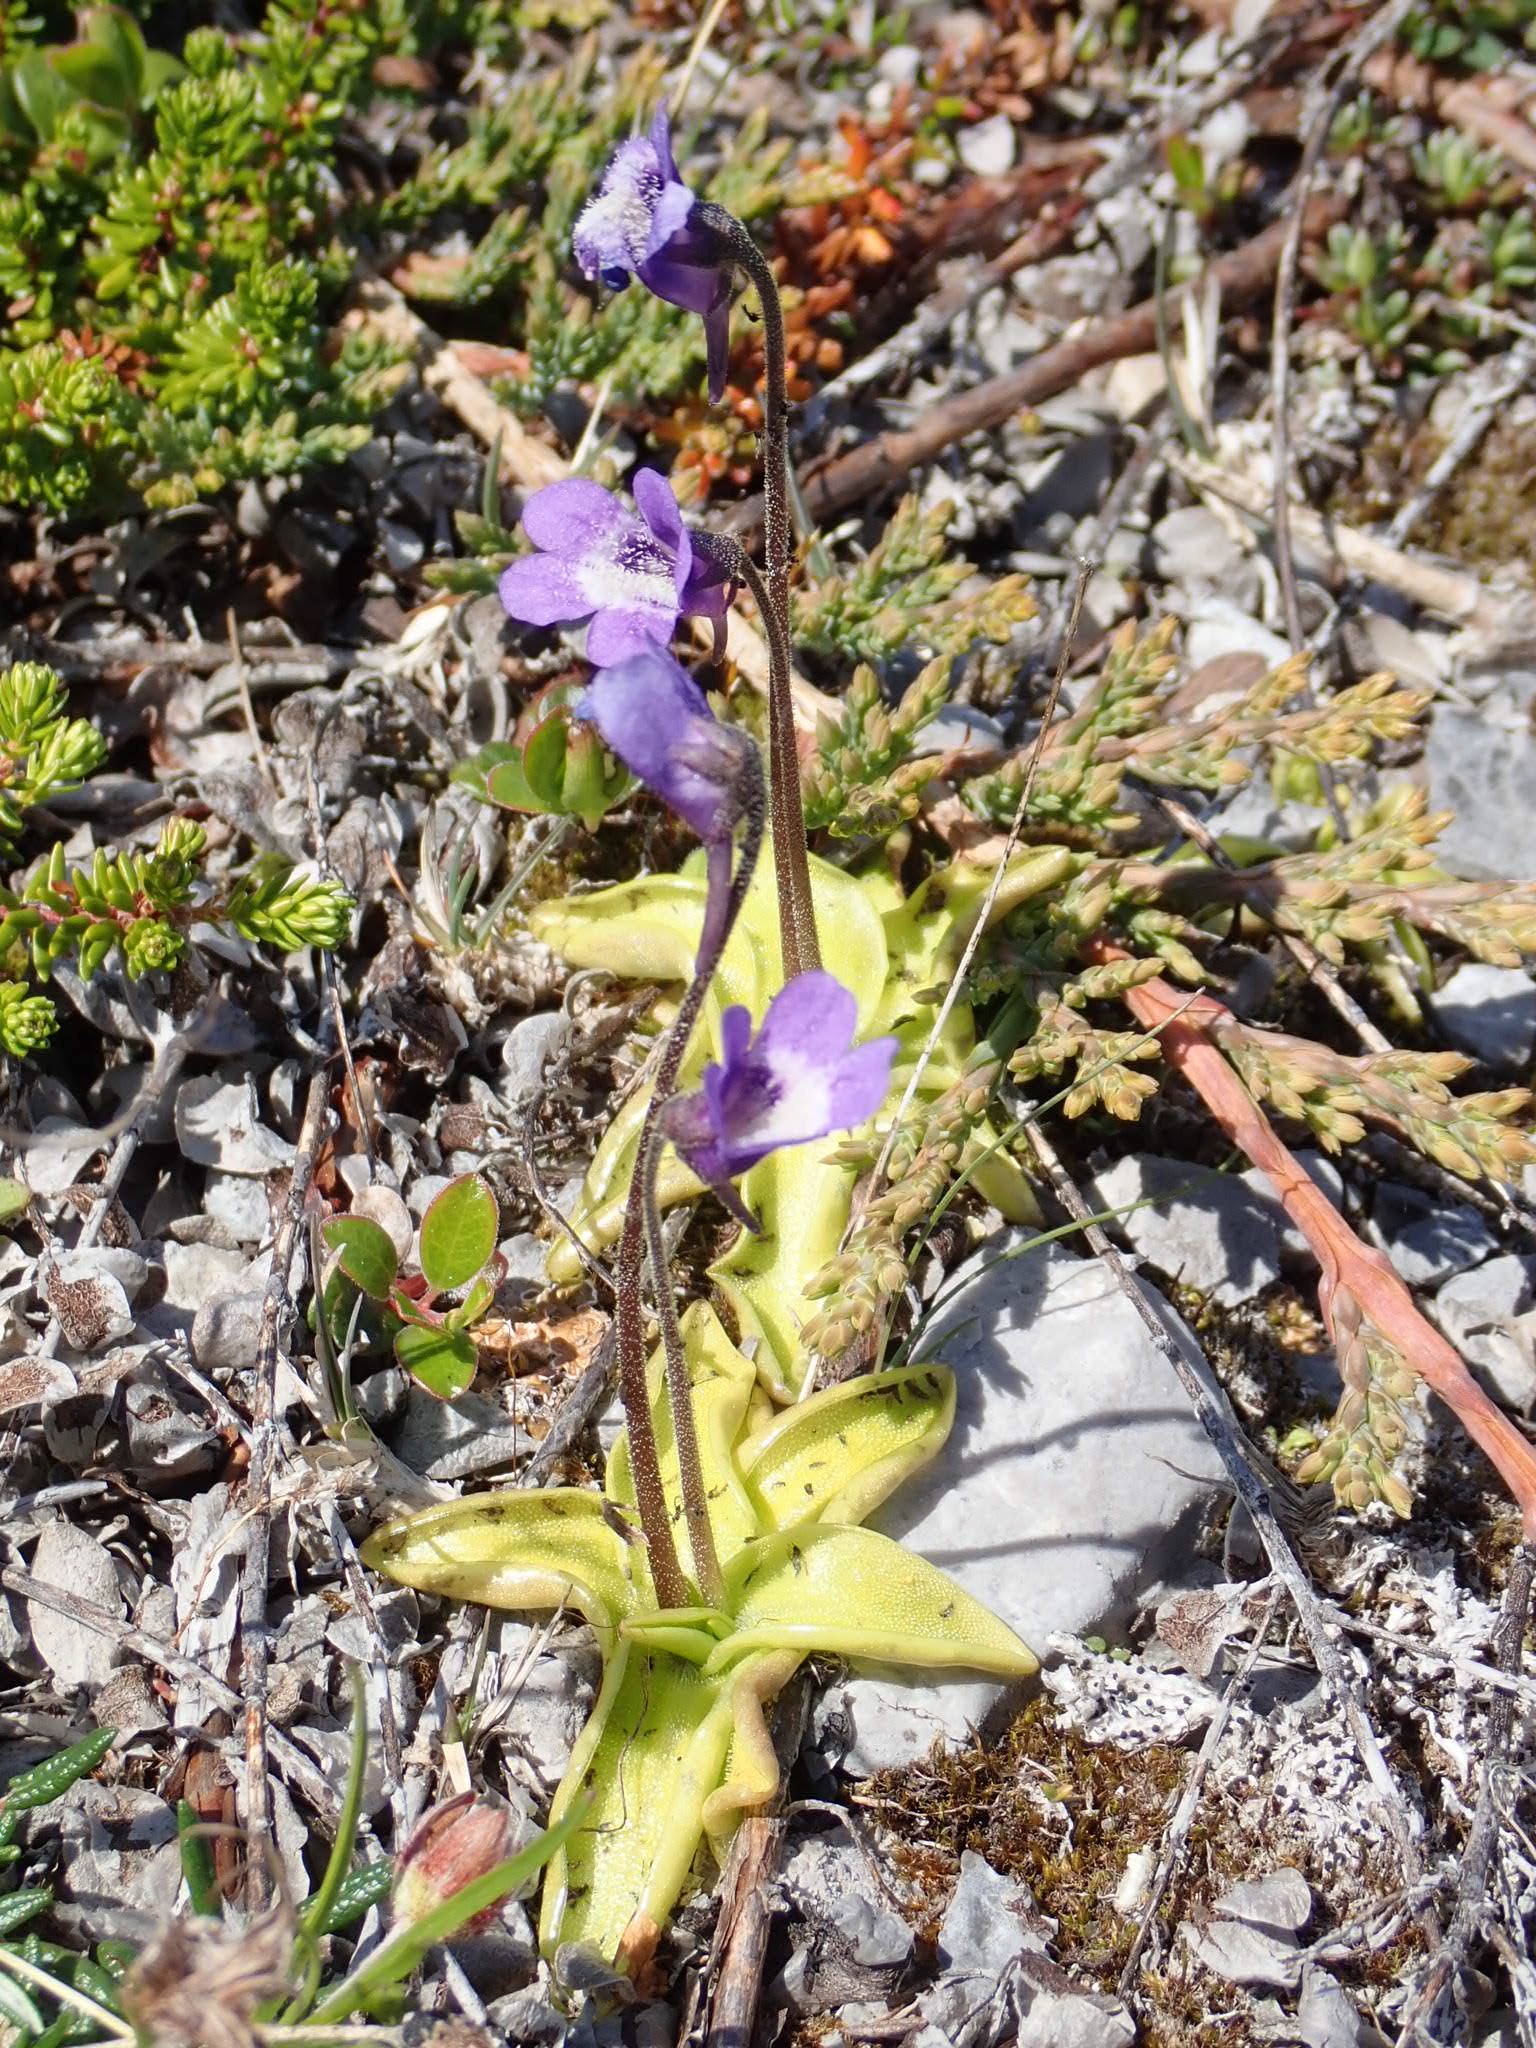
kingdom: Plantae
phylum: Tracheophyta
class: Magnoliopsida
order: Lamiales
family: Lentibulariaceae
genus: Pinguicula
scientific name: Pinguicula vulgaris
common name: Common butterwort
